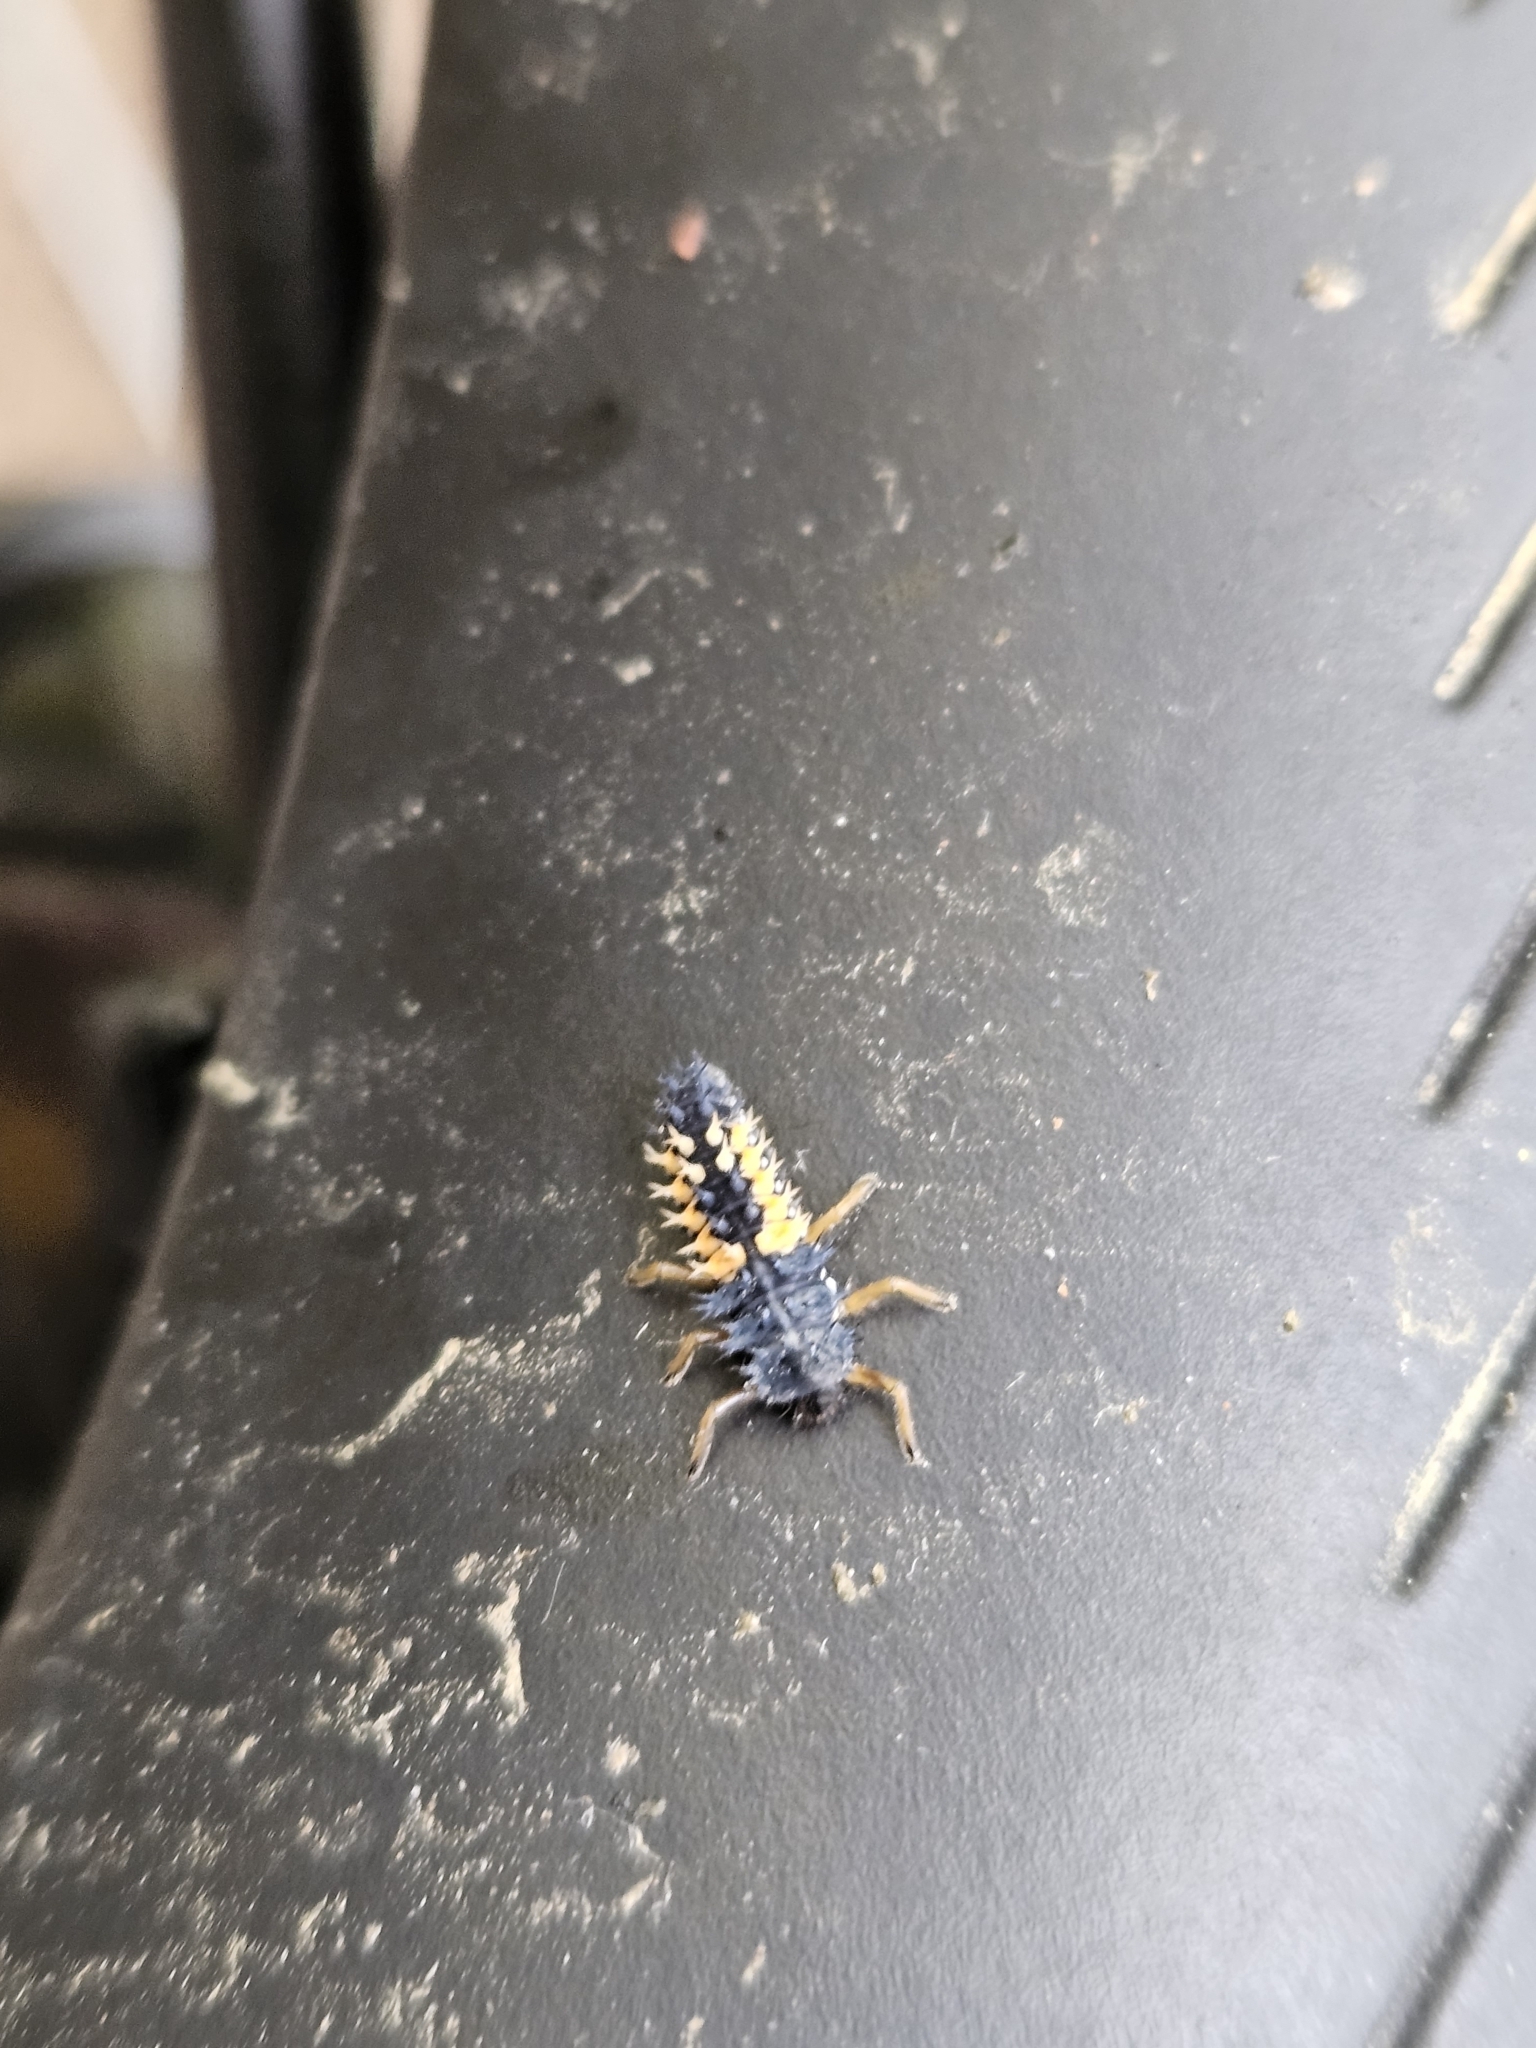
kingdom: Animalia
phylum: Arthropoda
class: Insecta
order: Coleoptera
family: Coccinellidae
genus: Harmonia
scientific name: Harmonia axyridis
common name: Harlequin ladybird
